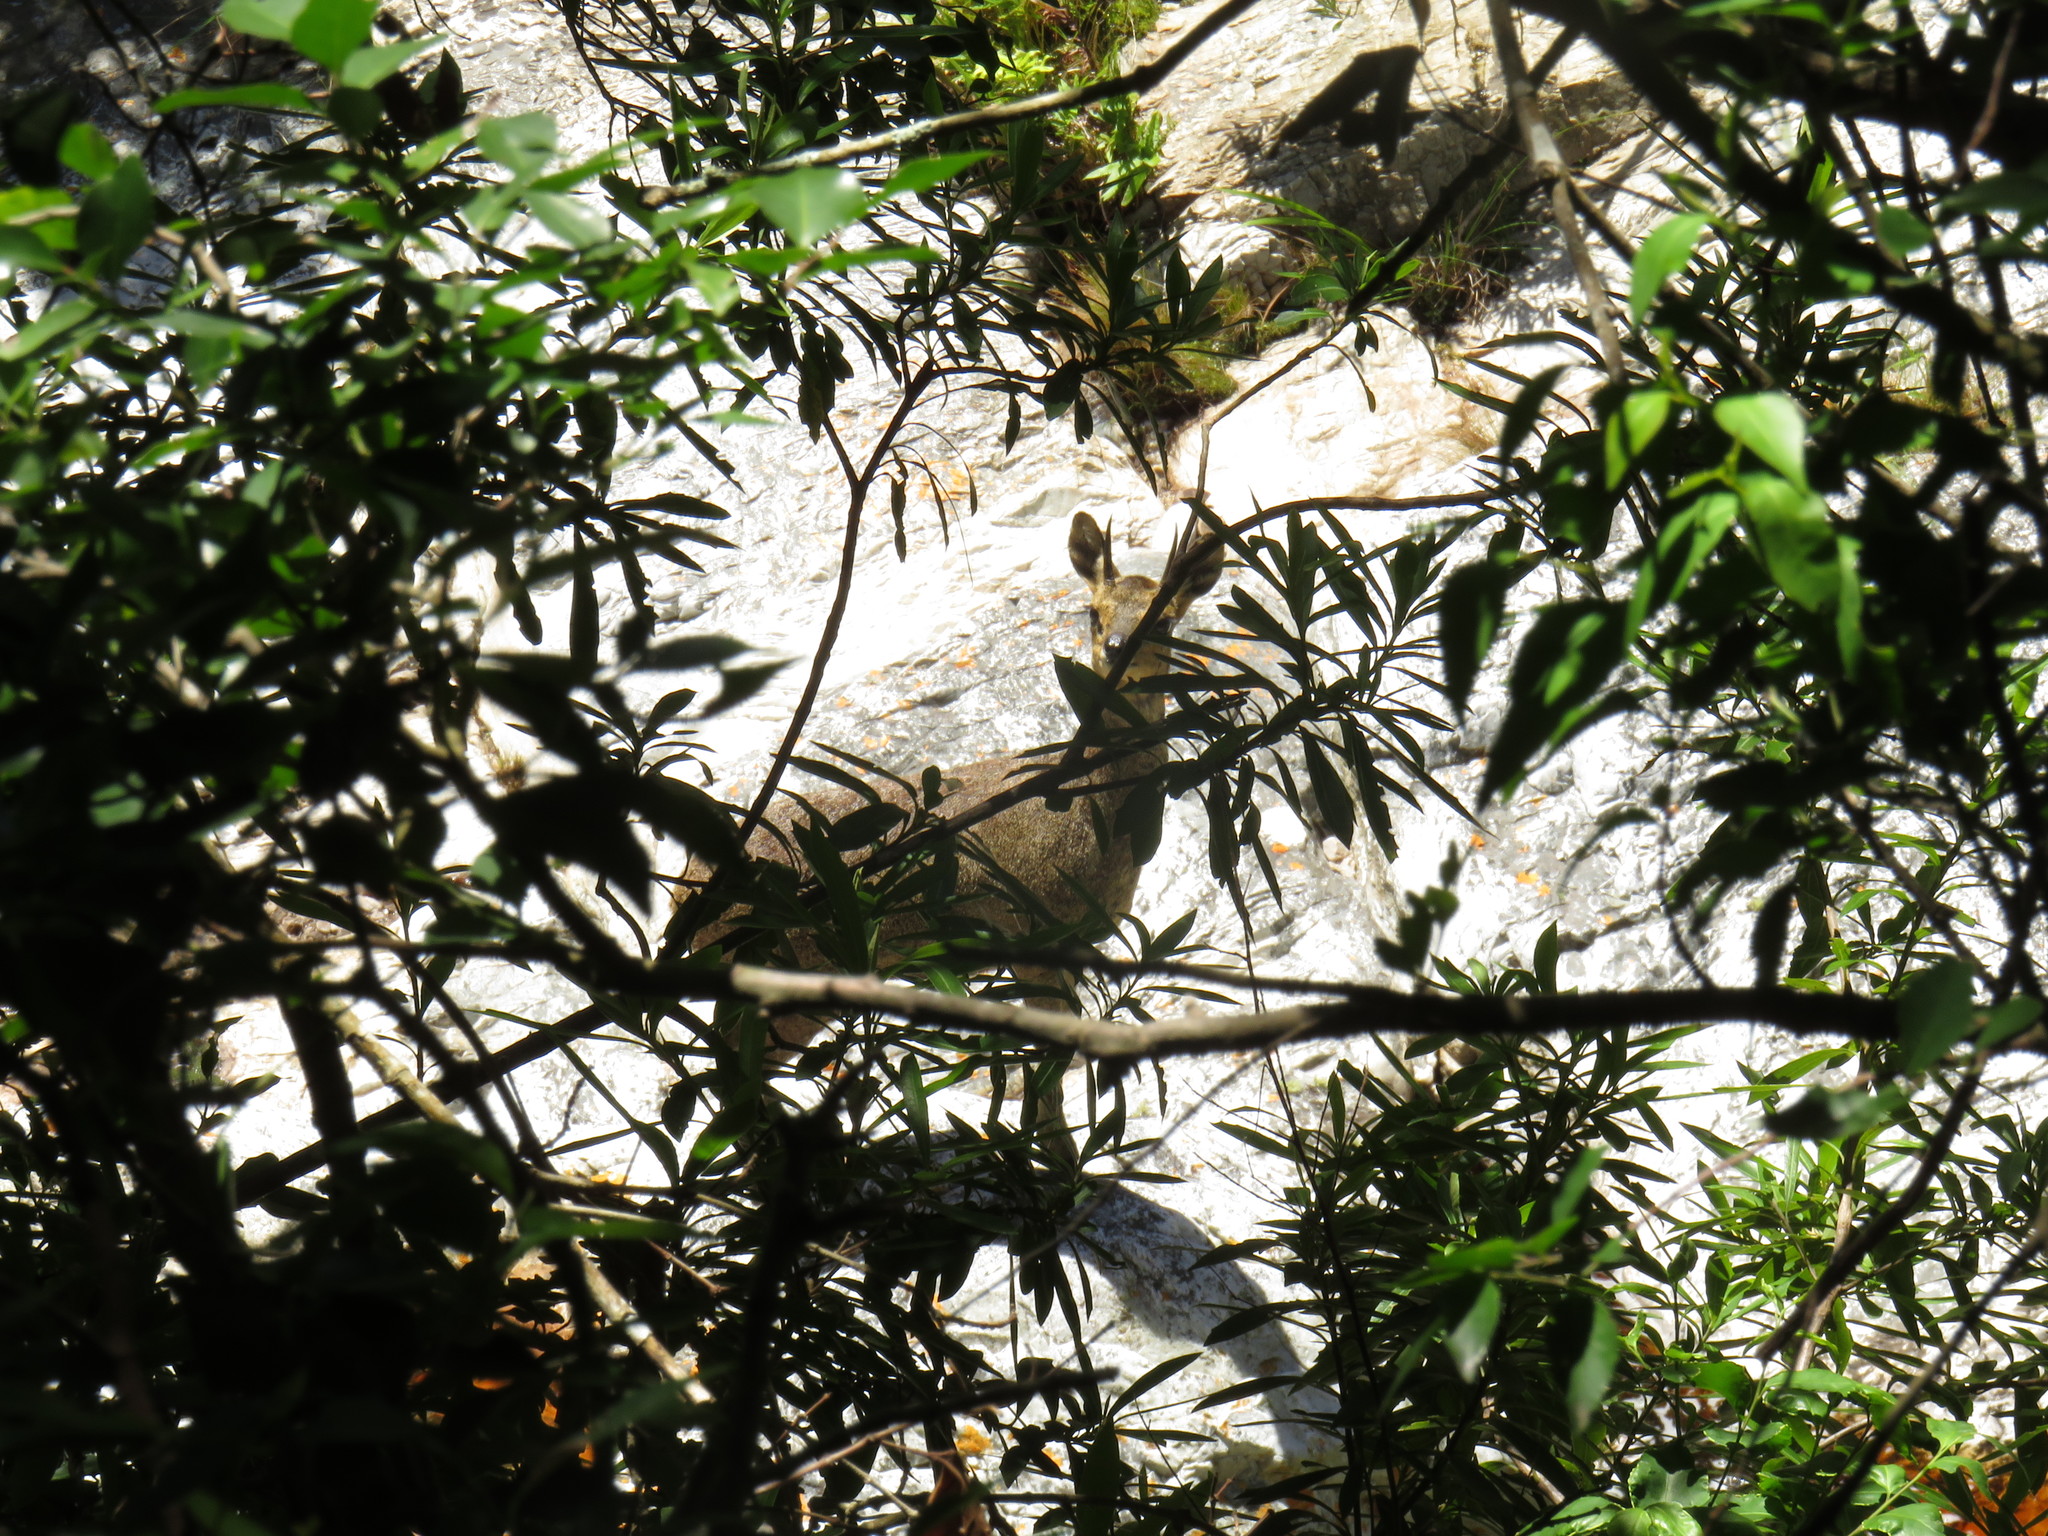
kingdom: Animalia
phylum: Chordata
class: Mammalia
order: Artiodactyla
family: Bovidae
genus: Oreotragus
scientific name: Oreotragus oreotragus
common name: Klipspringer
